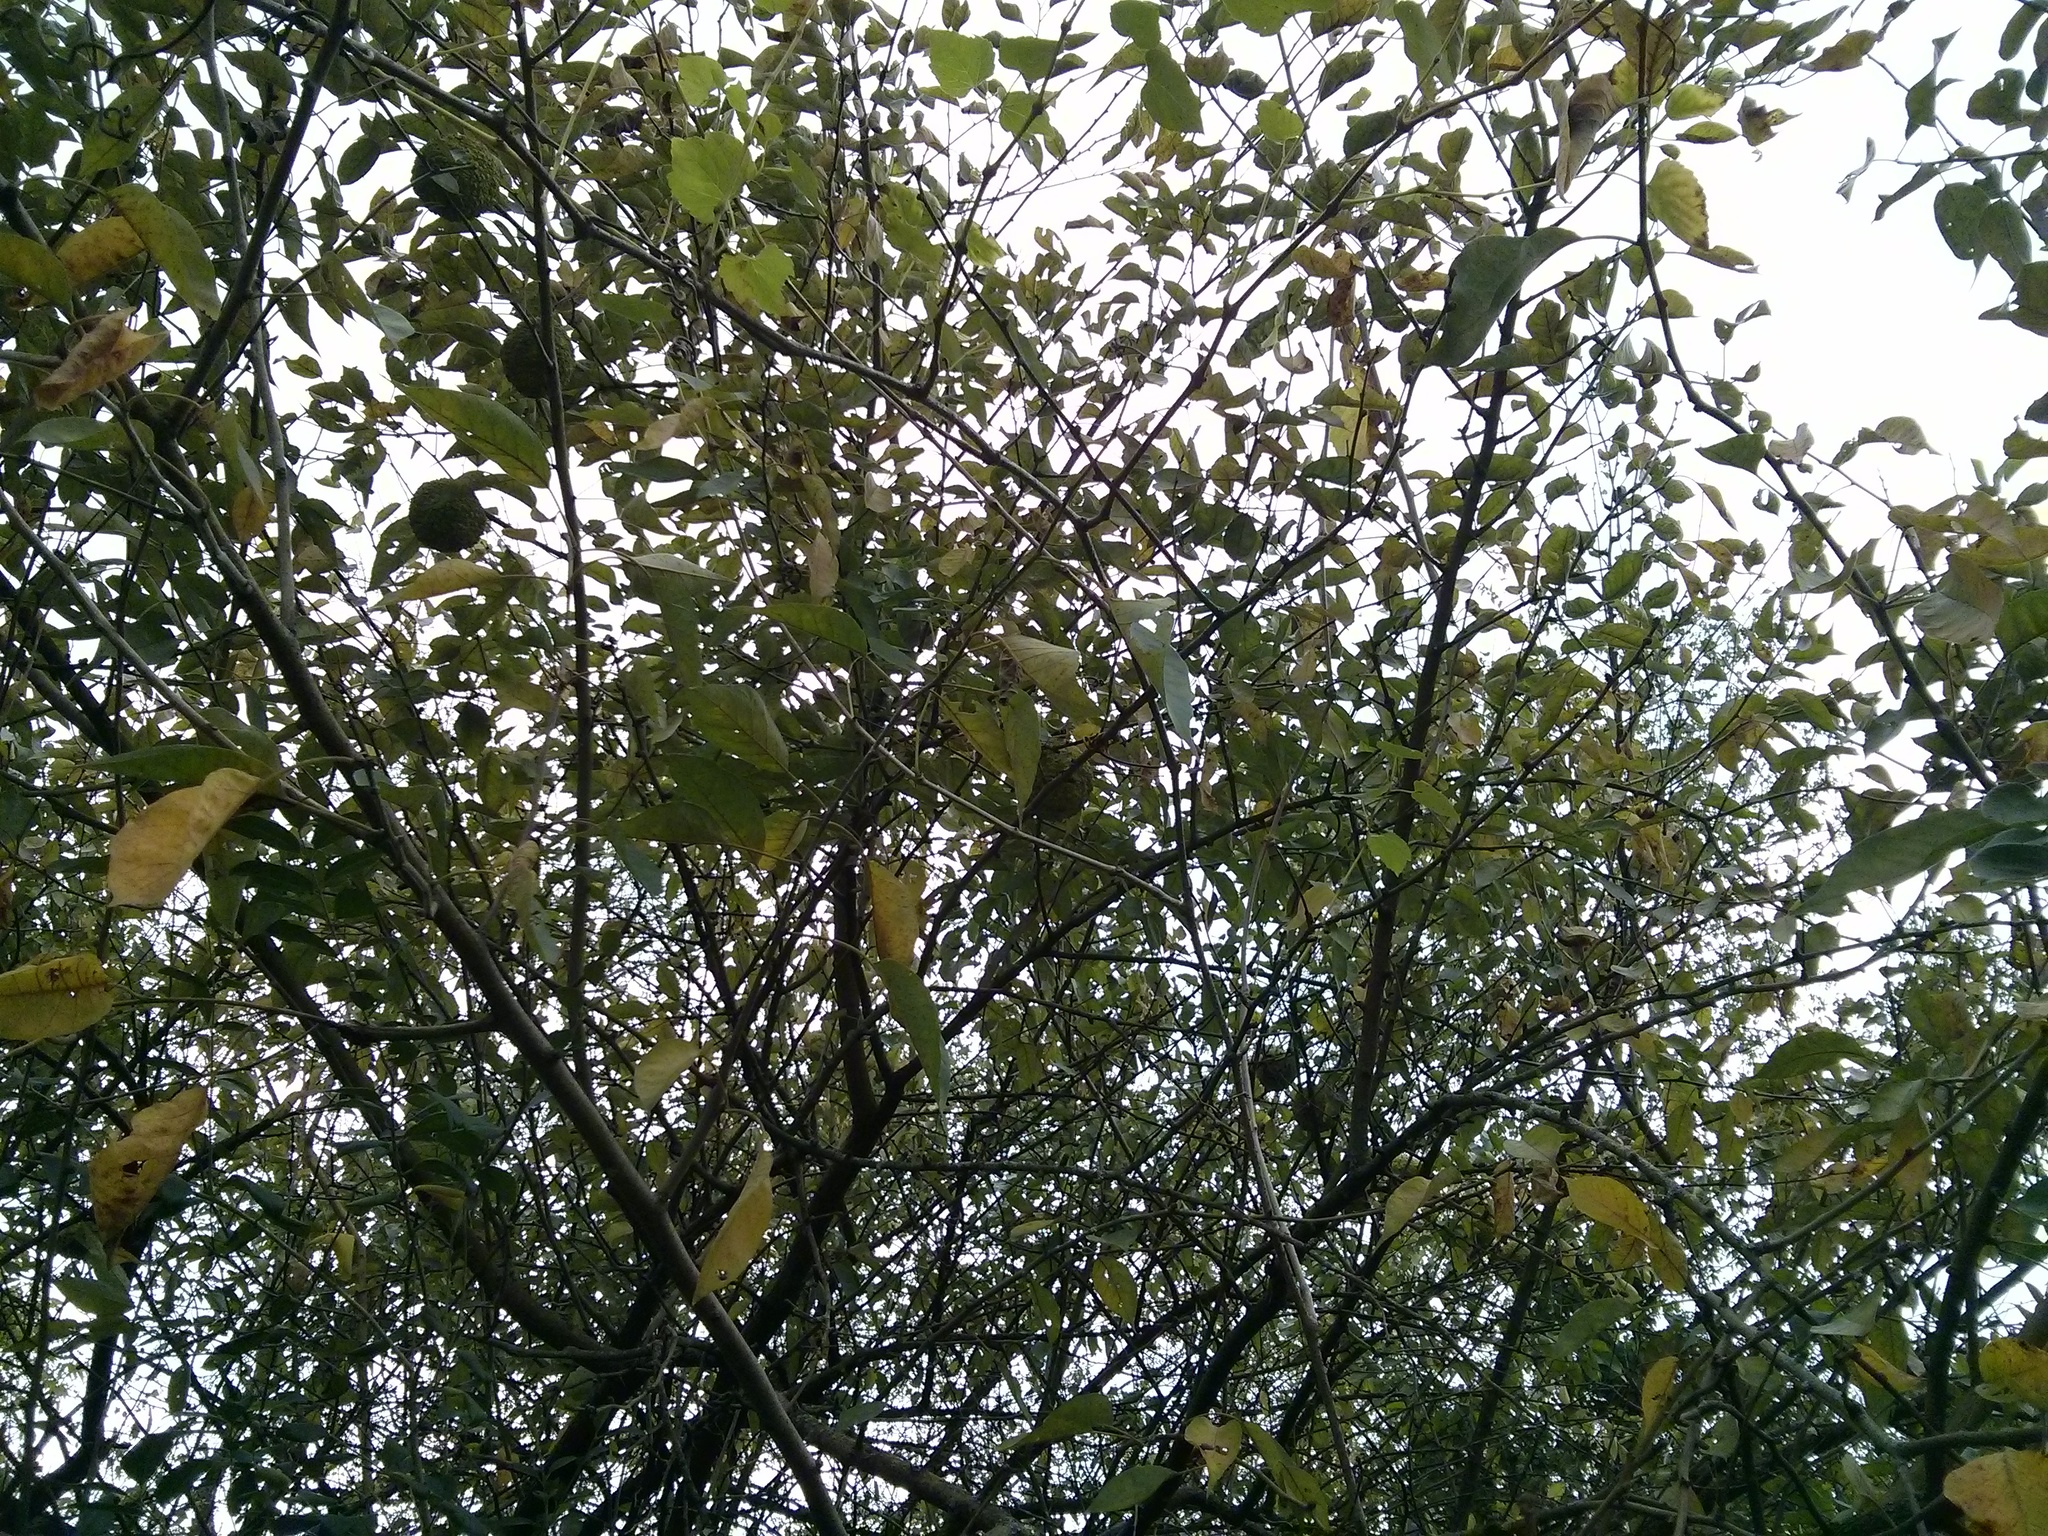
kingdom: Plantae
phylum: Tracheophyta
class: Magnoliopsida
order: Rosales
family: Moraceae
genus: Maclura
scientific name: Maclura pomifera
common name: Osage-orange
